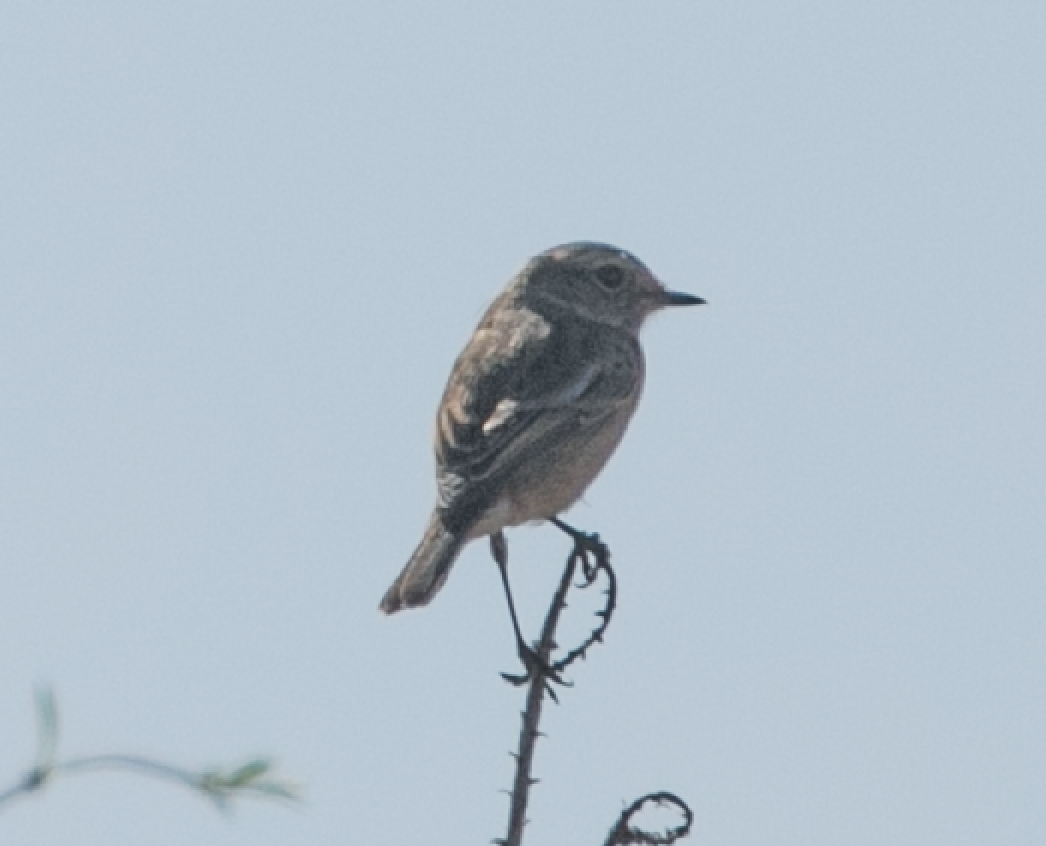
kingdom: Animalia
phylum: Chordata
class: Aves
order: Passeriformes
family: Muscicapidae
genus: Saxicola
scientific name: Saxicola rubicola
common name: European stonechat
